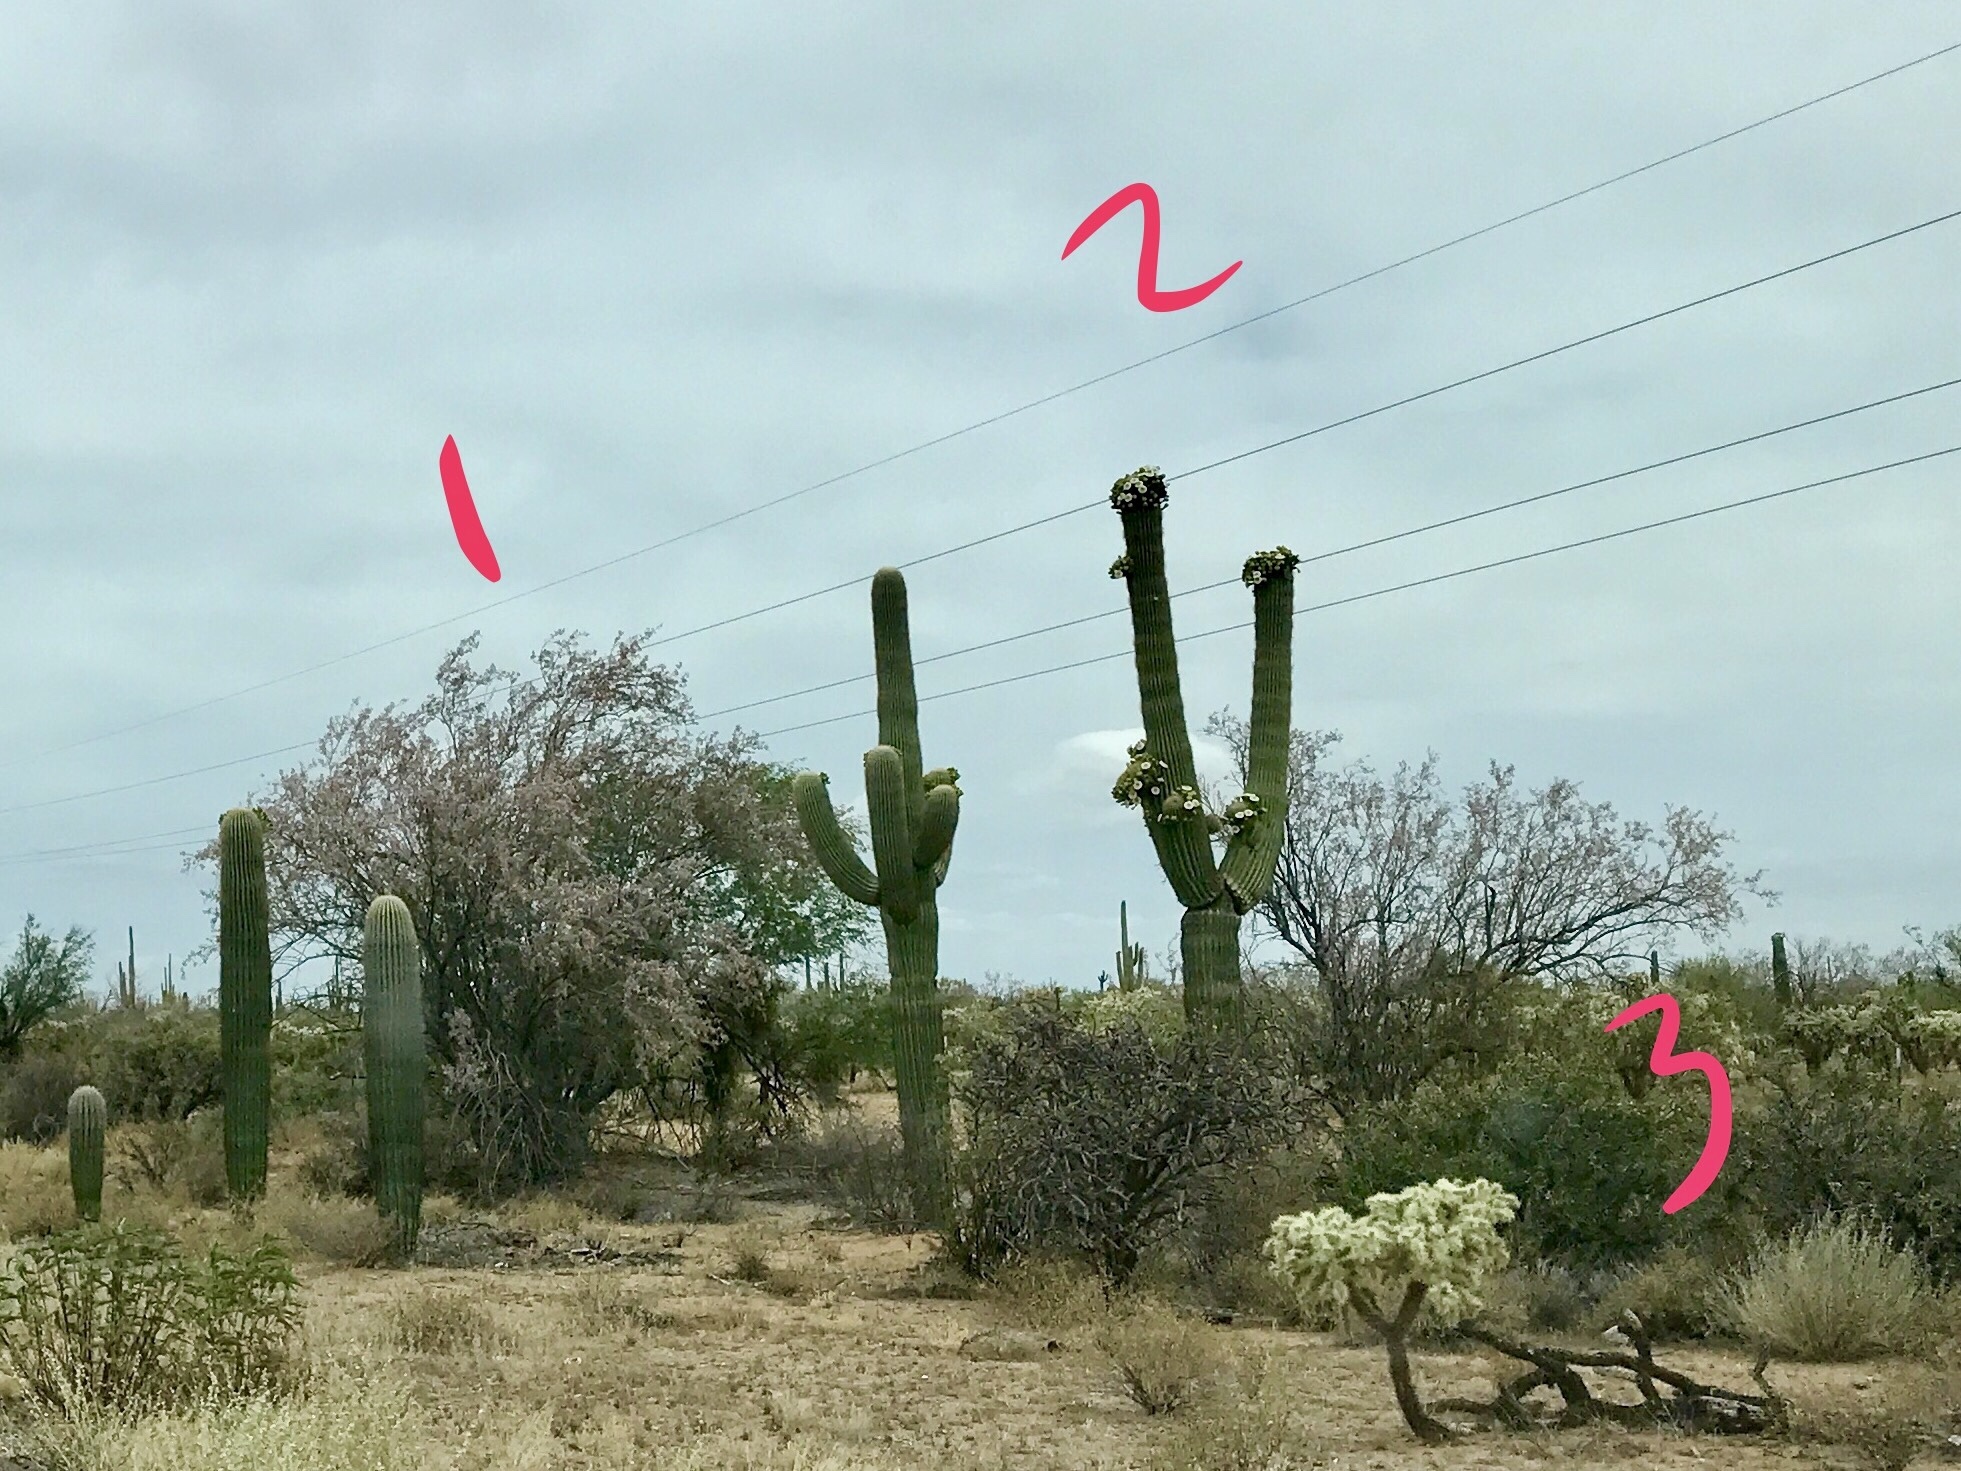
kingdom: Plantae
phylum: Tracheophyta
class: Magnoliopsida
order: Fabales
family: Fabaceae
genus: Olneya
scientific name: Olneya tesota
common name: Desert ironwood
